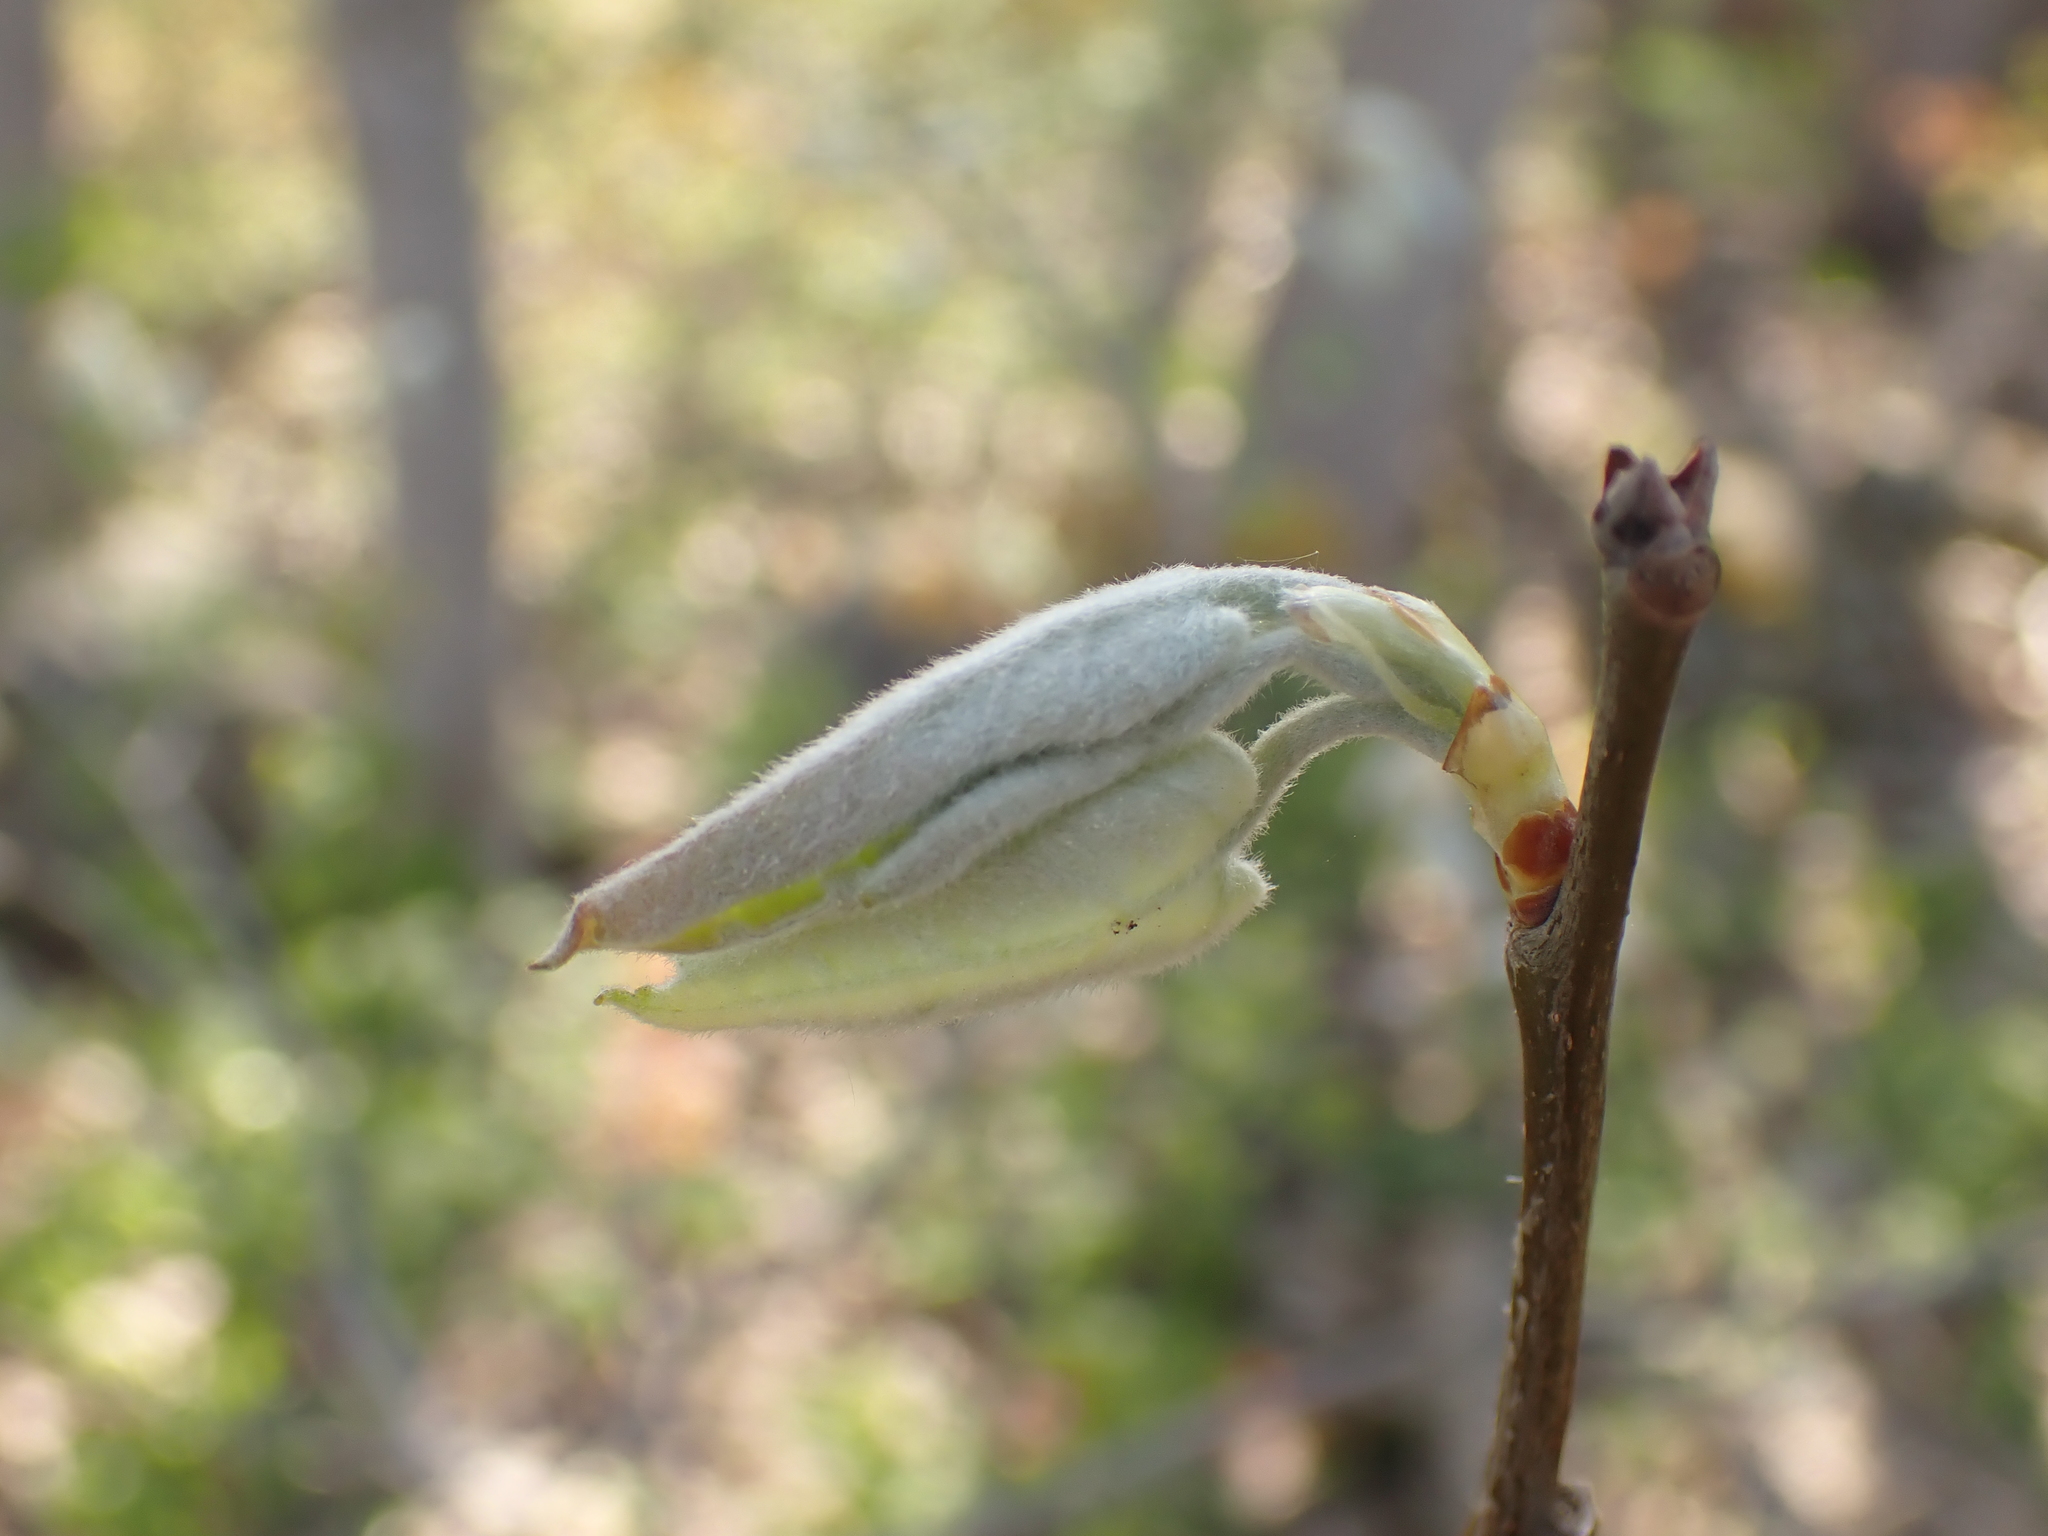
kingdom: Plantae
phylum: Tracheophyta
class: Magnoliopsida
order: Malpighiales
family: Salicaceae
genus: Populus
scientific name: Populus grandidentata
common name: Bigtooth aspen
